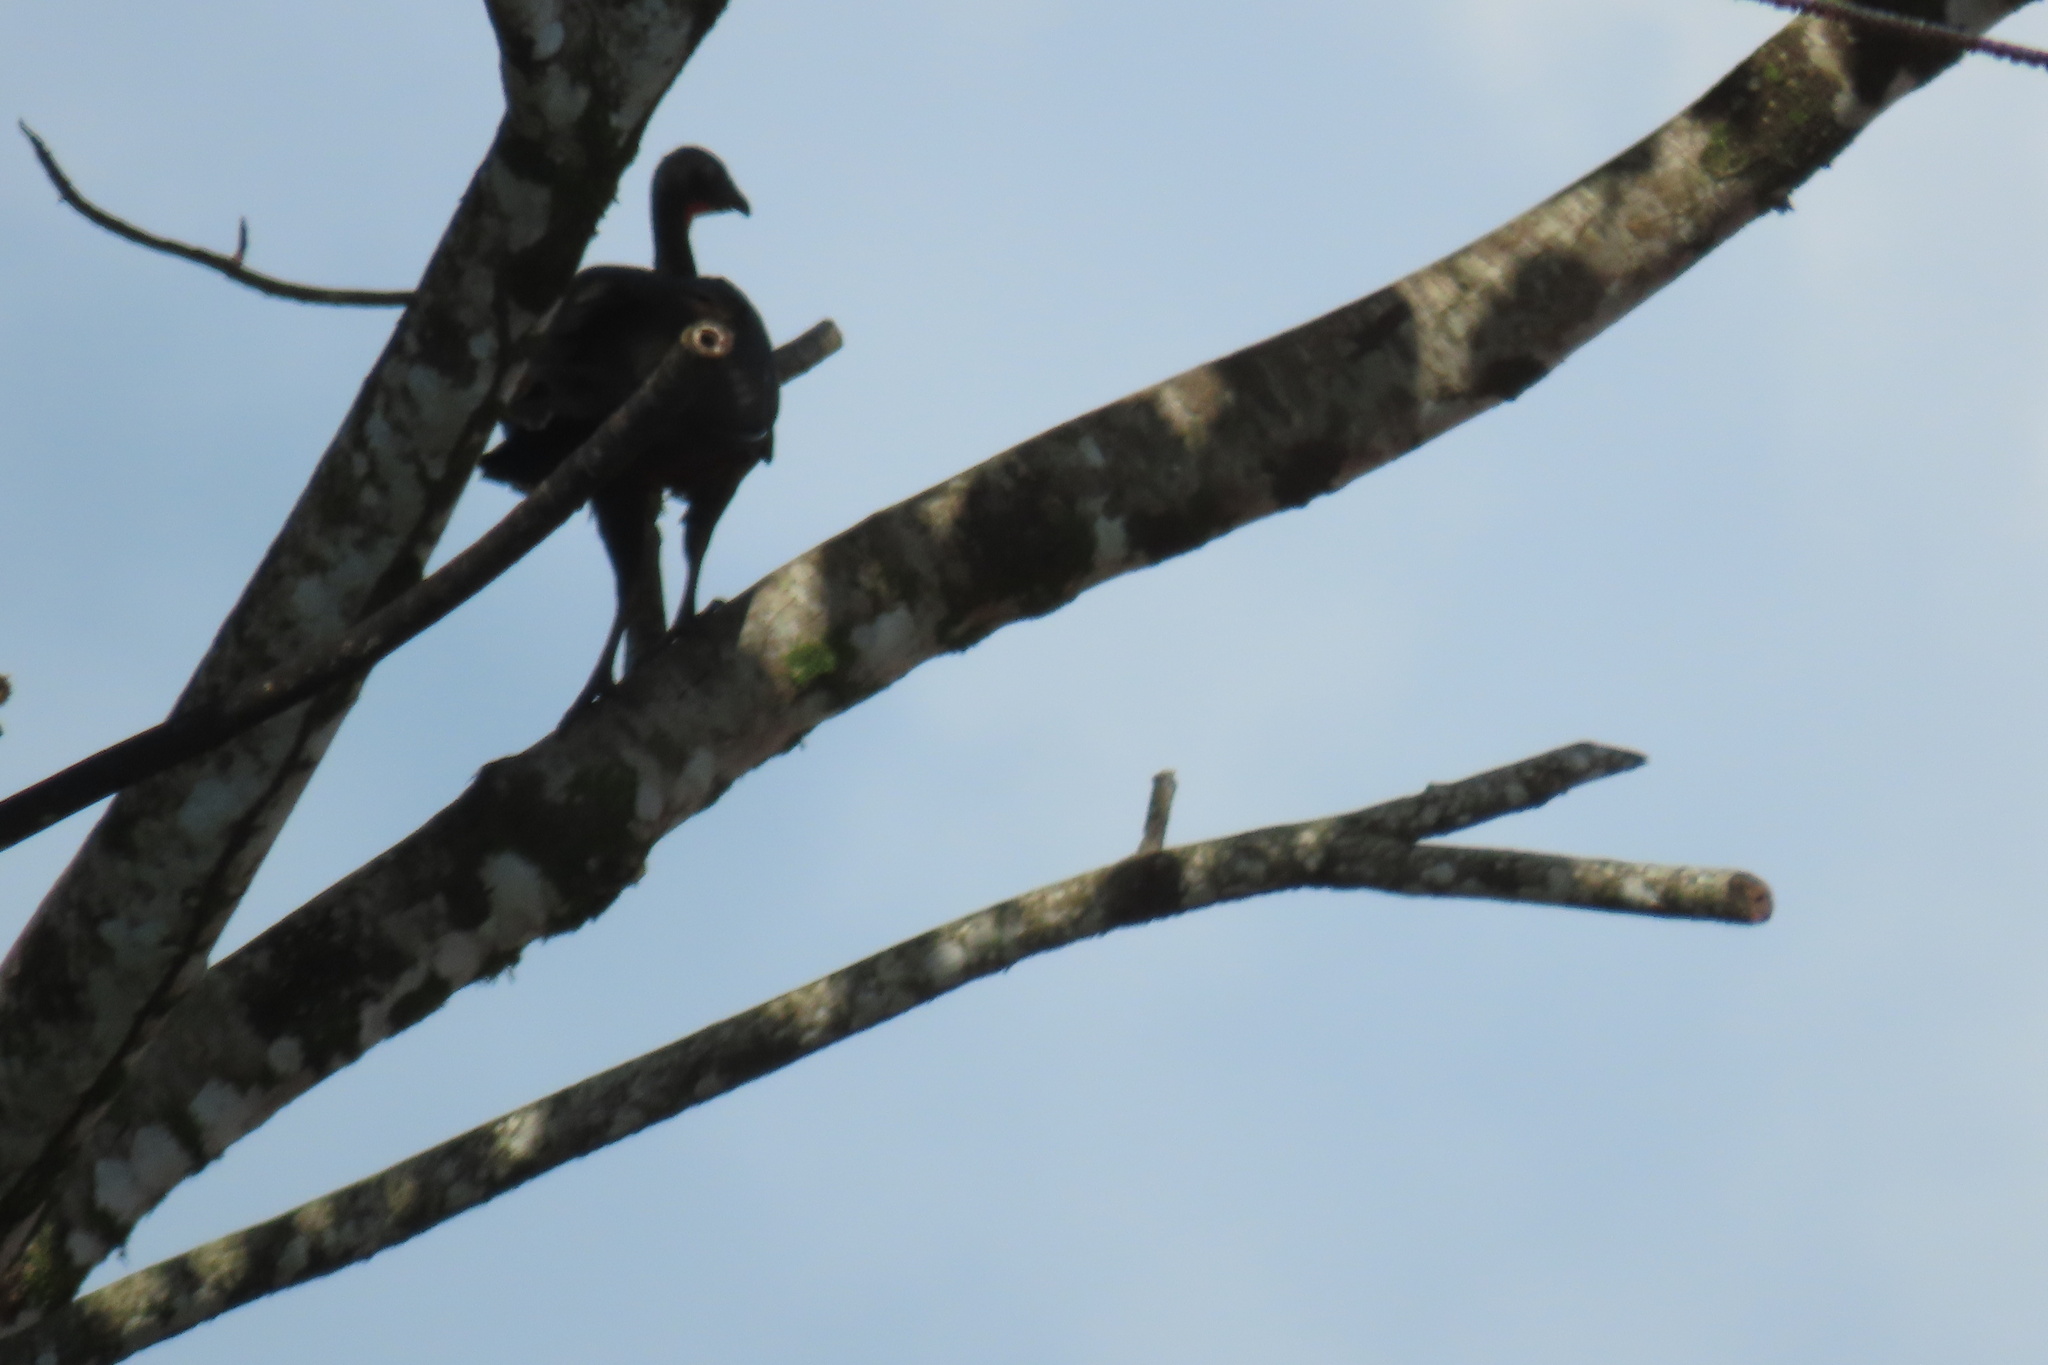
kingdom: Animalia
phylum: Chordata
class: Aves
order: Galliformes
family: Cracidae
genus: Penelope
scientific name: Penelope purpurascens
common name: Crested guan
